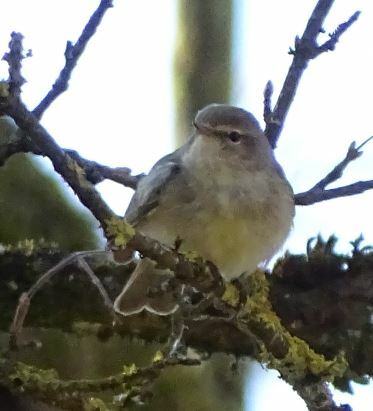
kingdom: Animalia
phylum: Chordata
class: Aves
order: Passeriformes
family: Phylloscopidae
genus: Phylloscopus
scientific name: Phylloscopus collybita
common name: Common chiffchaff
